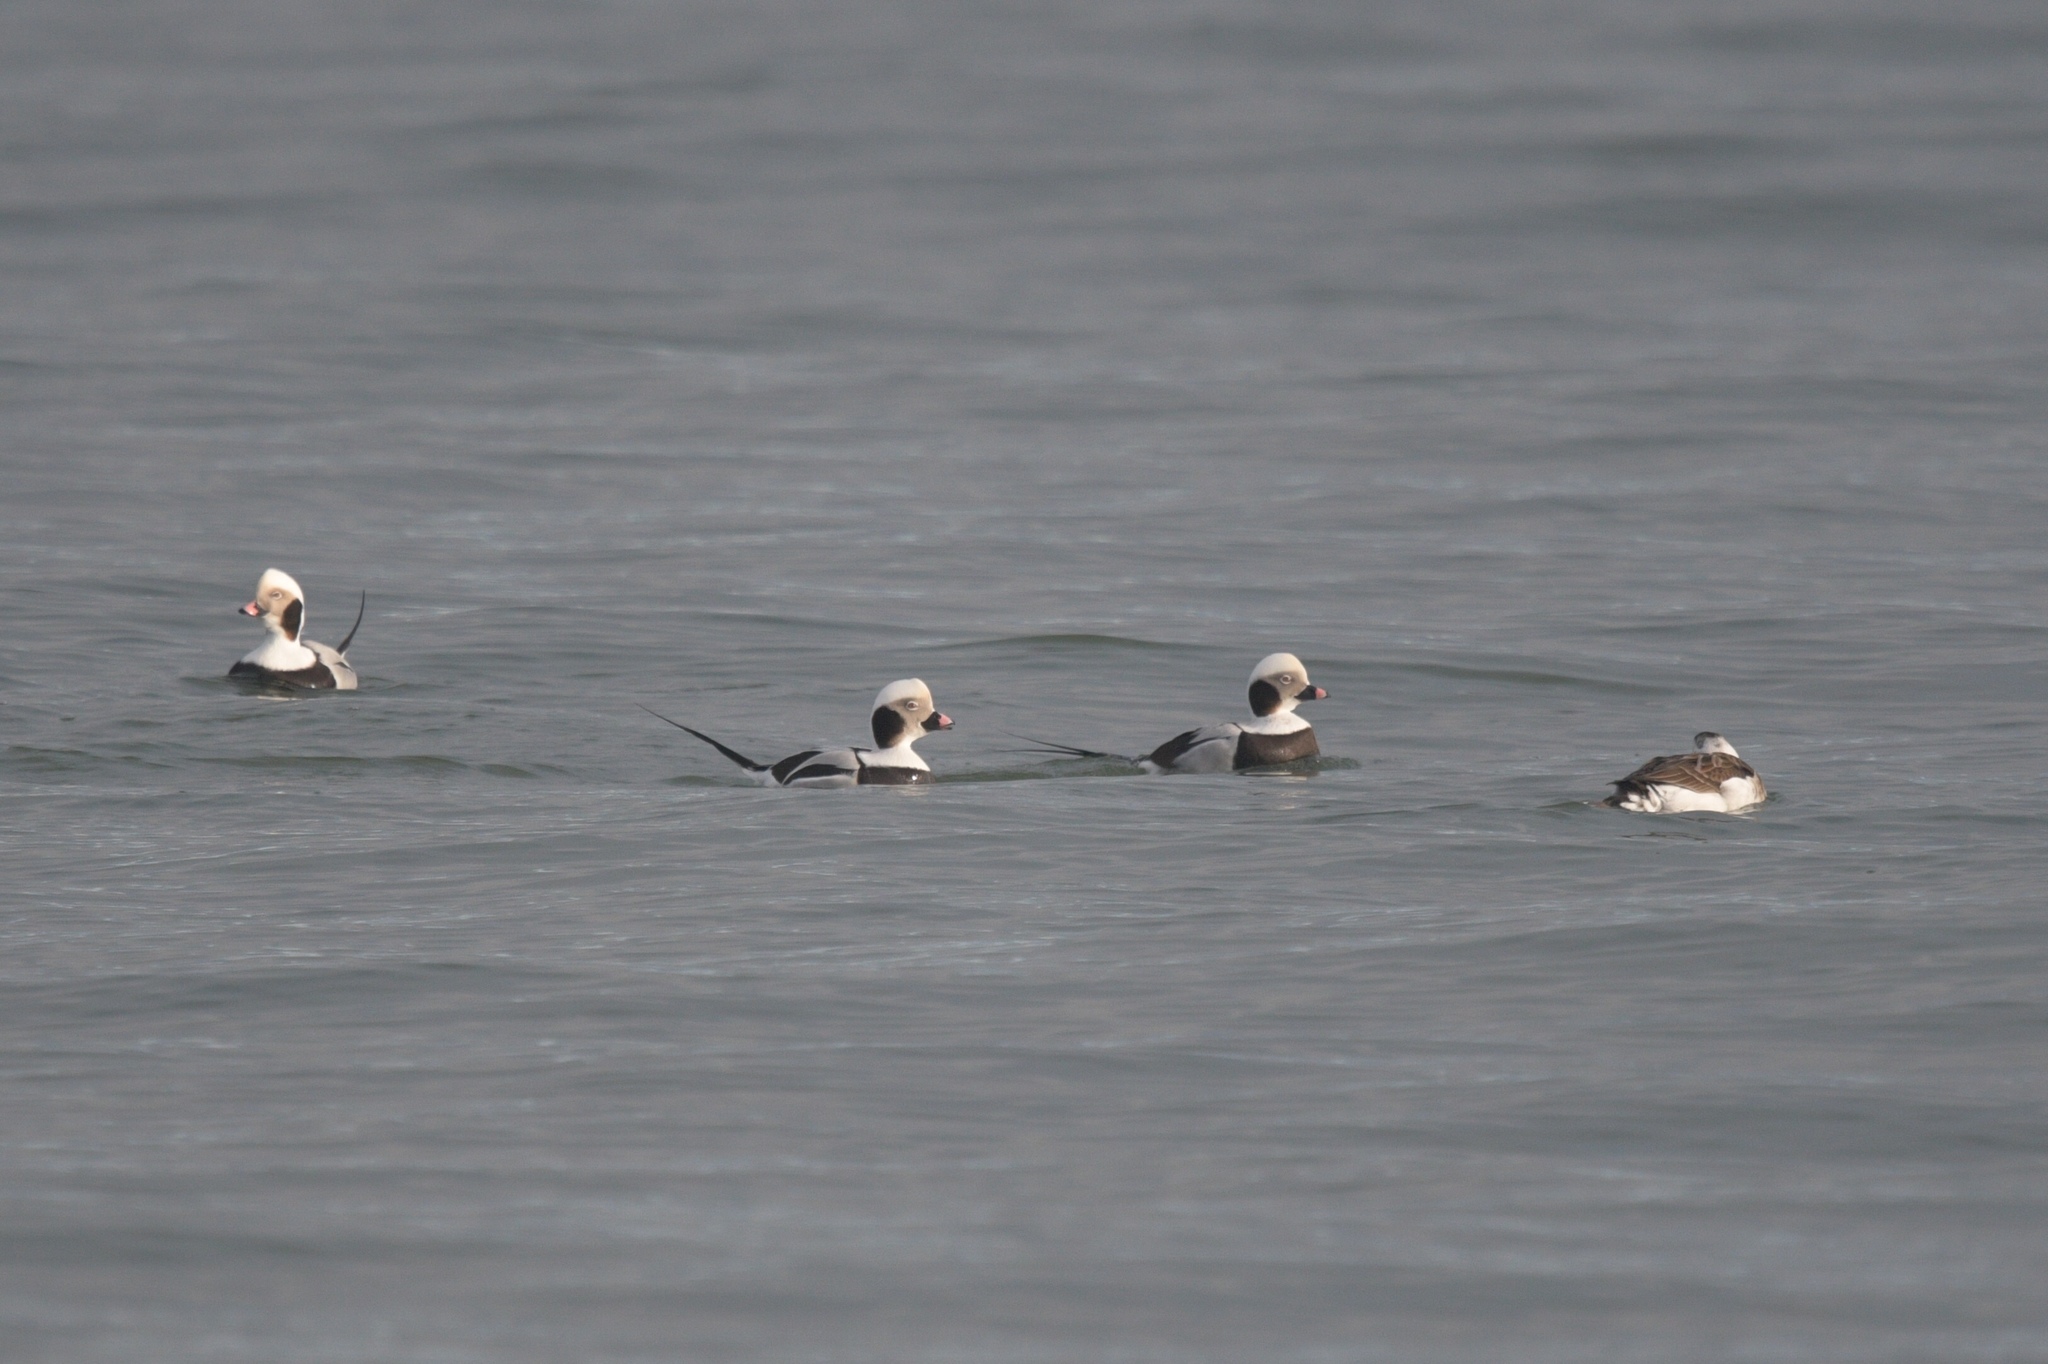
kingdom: Animalia
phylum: Chordata
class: Aves
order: Anseriformes
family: Anatidae
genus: Clangula
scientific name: Clangula hyemalis
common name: Long-tailed duck
